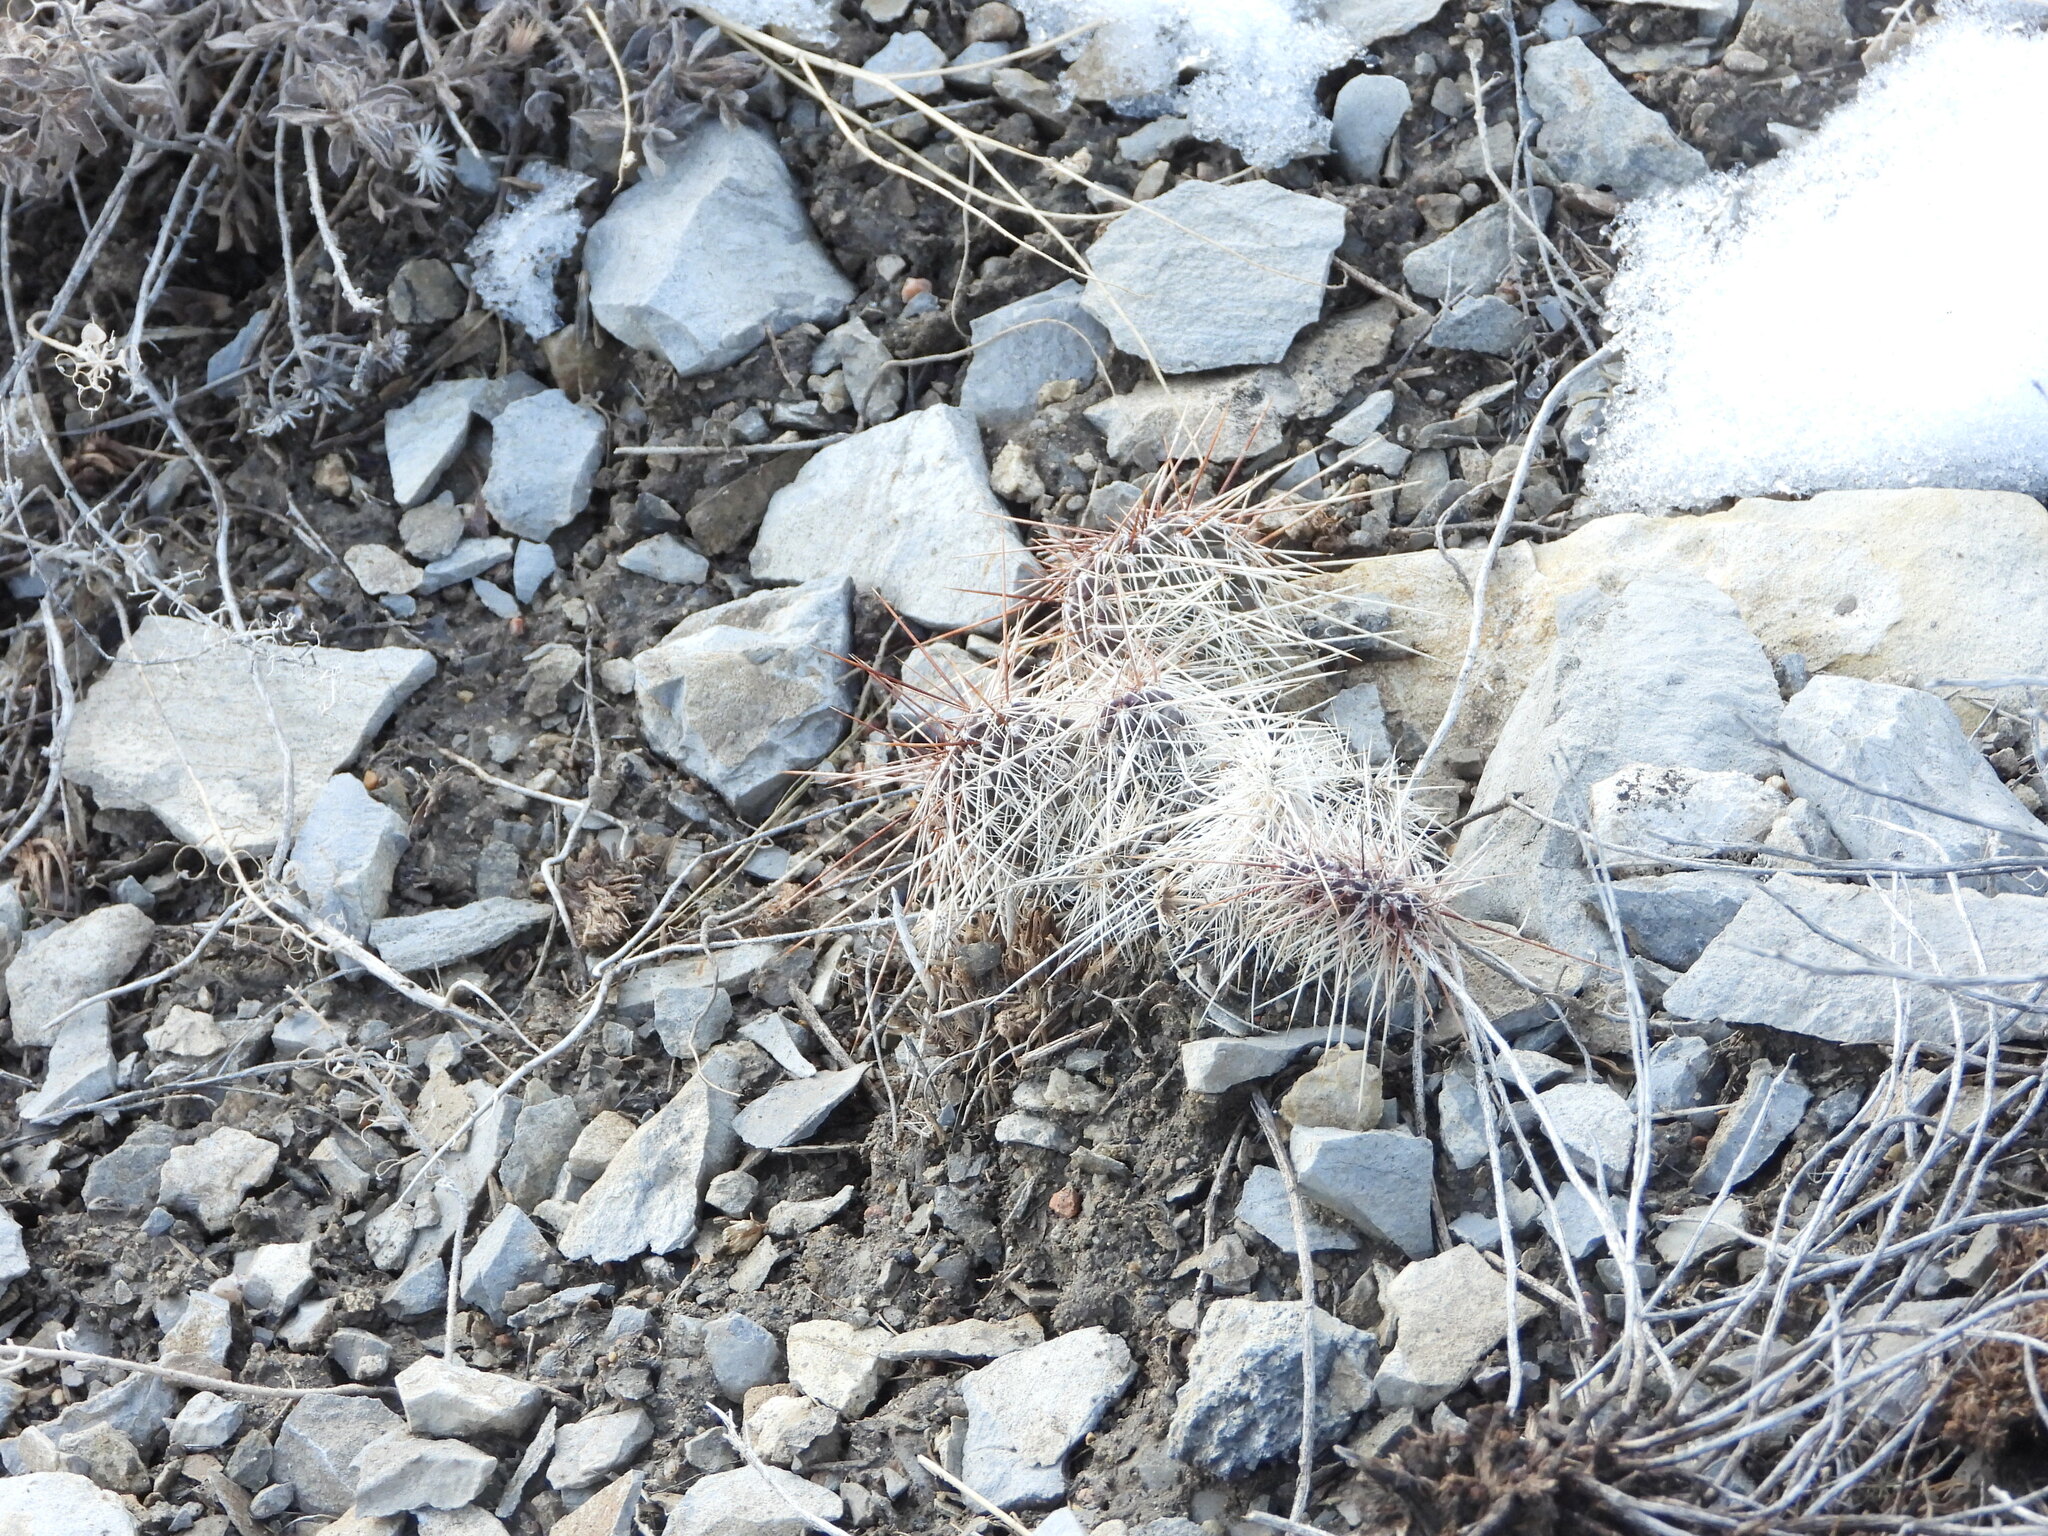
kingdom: Plantae
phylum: Tracheophyta
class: Magnoliopsida
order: Caryophyllales
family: Cactaceae
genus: Opuntia
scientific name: Opuntia polyacantha
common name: Plains prickly-pear
